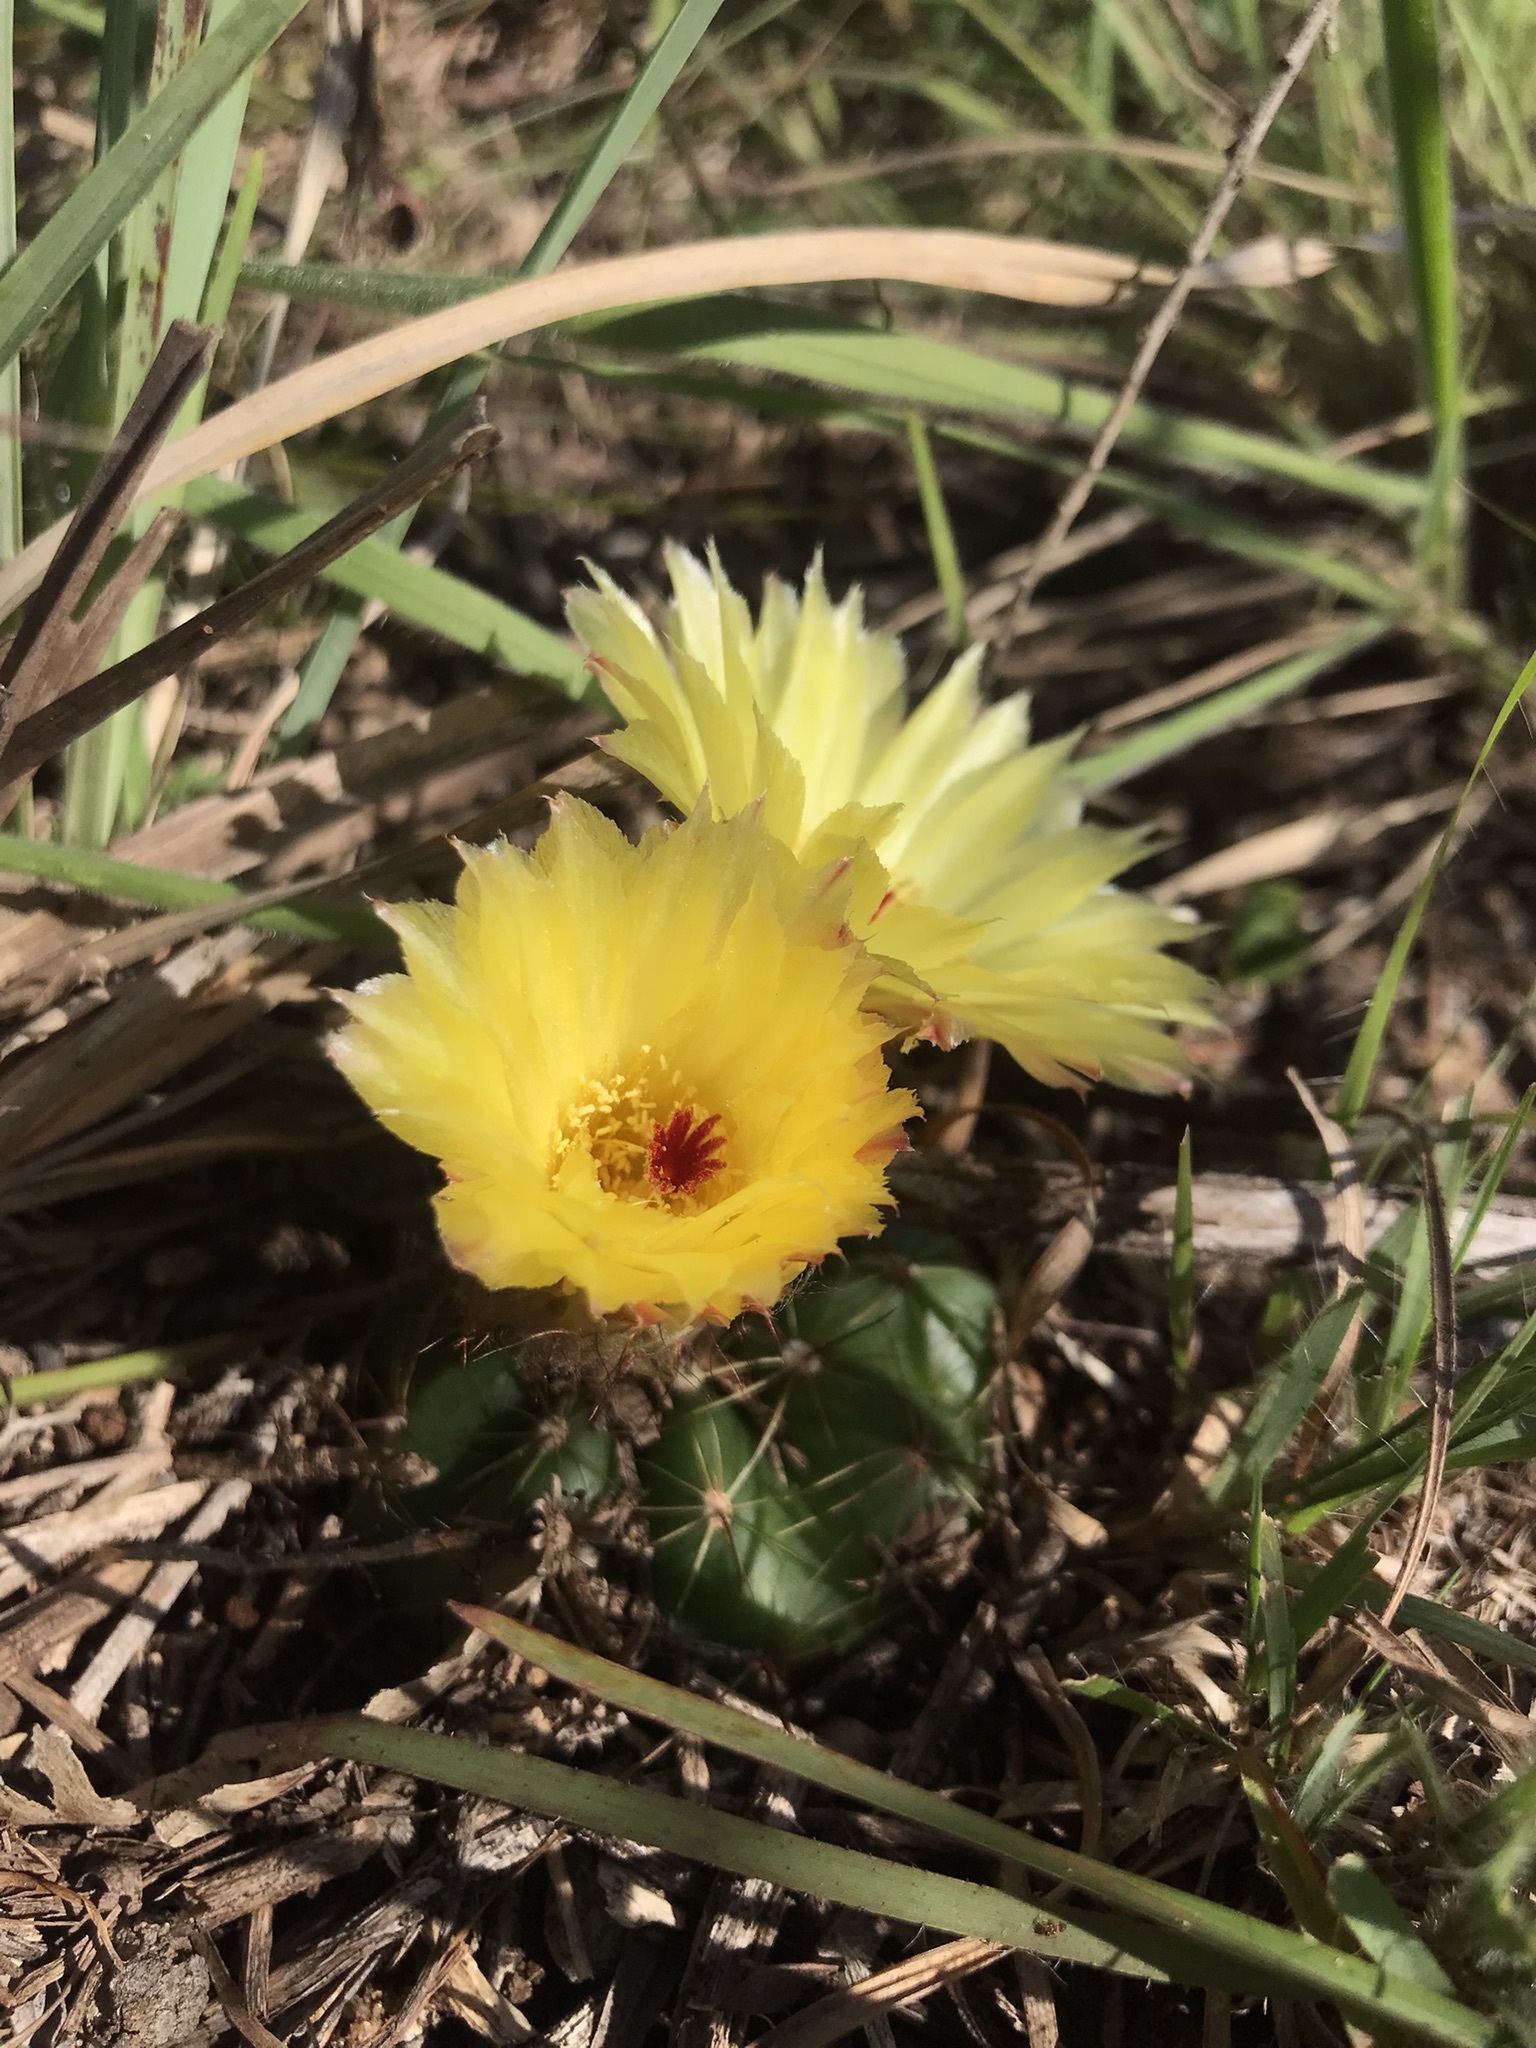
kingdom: Plantae
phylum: Tracheophyta
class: Magnoliopsida
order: Caryophyllales
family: Cactaceae
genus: Parodia
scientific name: Parodia ottonis
